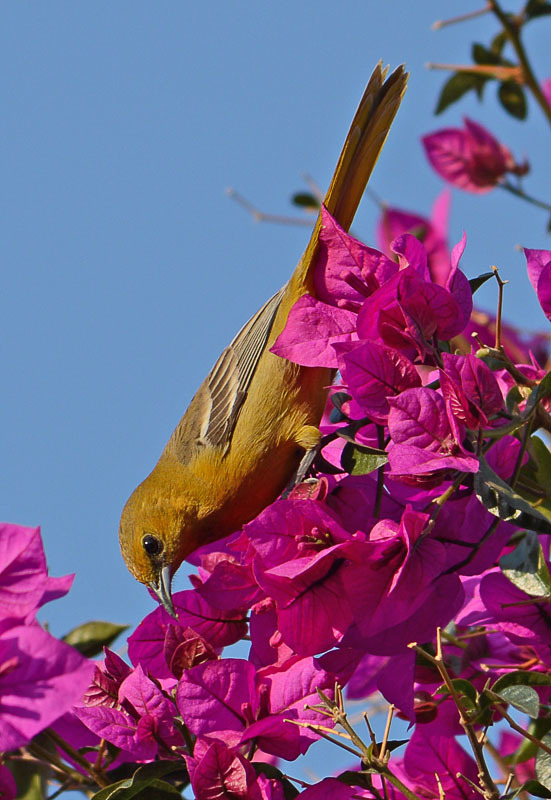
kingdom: Animalia
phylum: Chordata
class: Aves
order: Passeriformes
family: Icteridae
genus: Icterus
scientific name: Icterus cucullatus
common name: Hooded oriole
